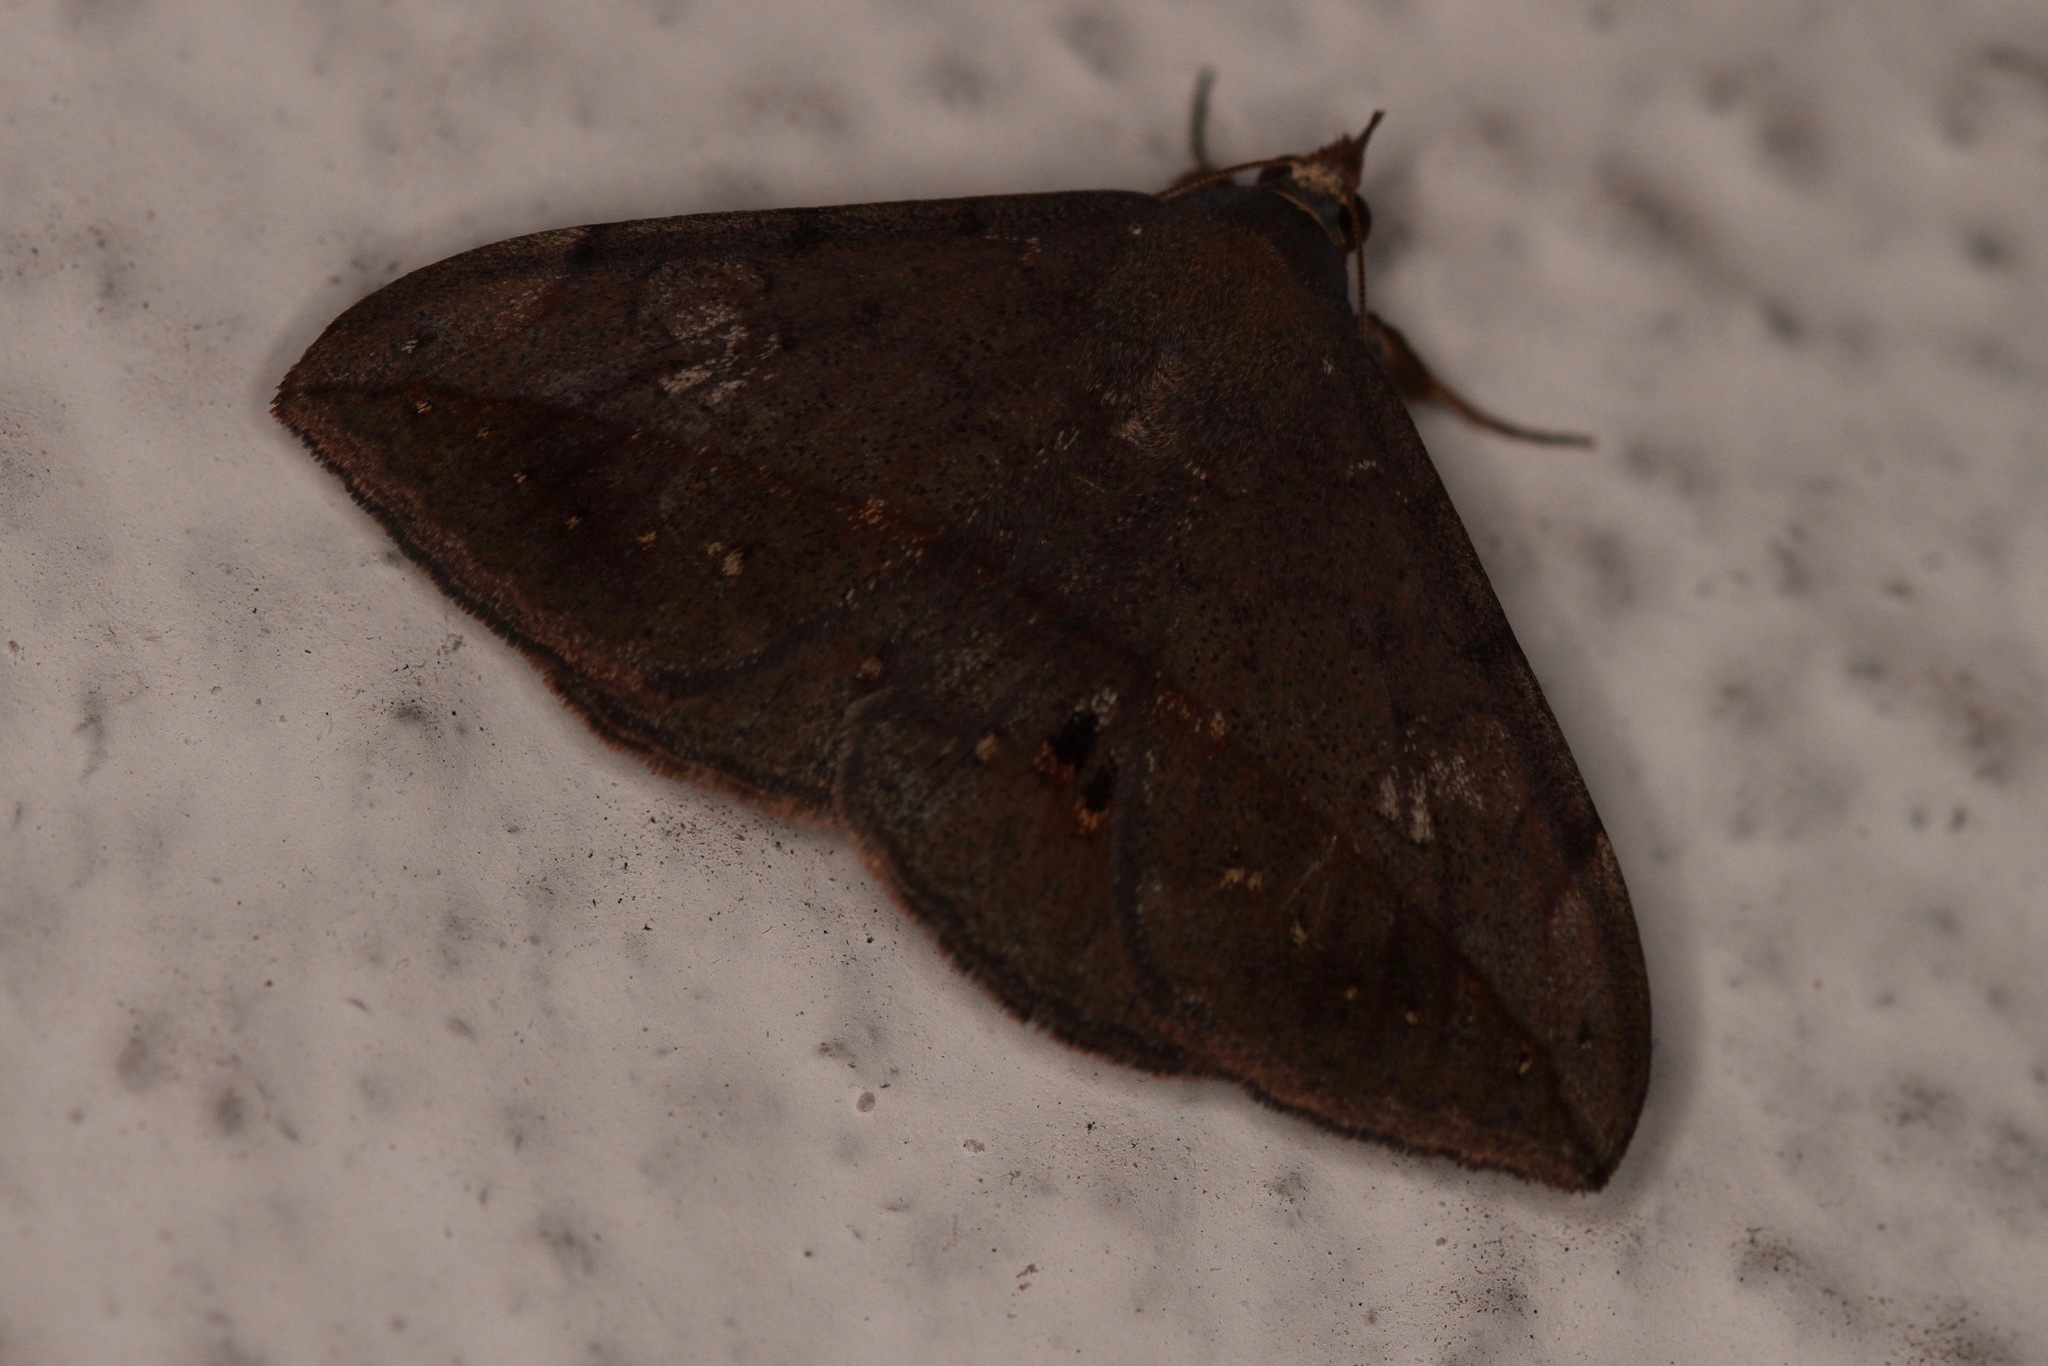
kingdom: Animalia
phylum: Arthropoda
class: Insecta
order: Lepidoptera
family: Erebidae
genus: Anticarsia
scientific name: Anticarsia gemmatalis
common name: Cutworm moth
